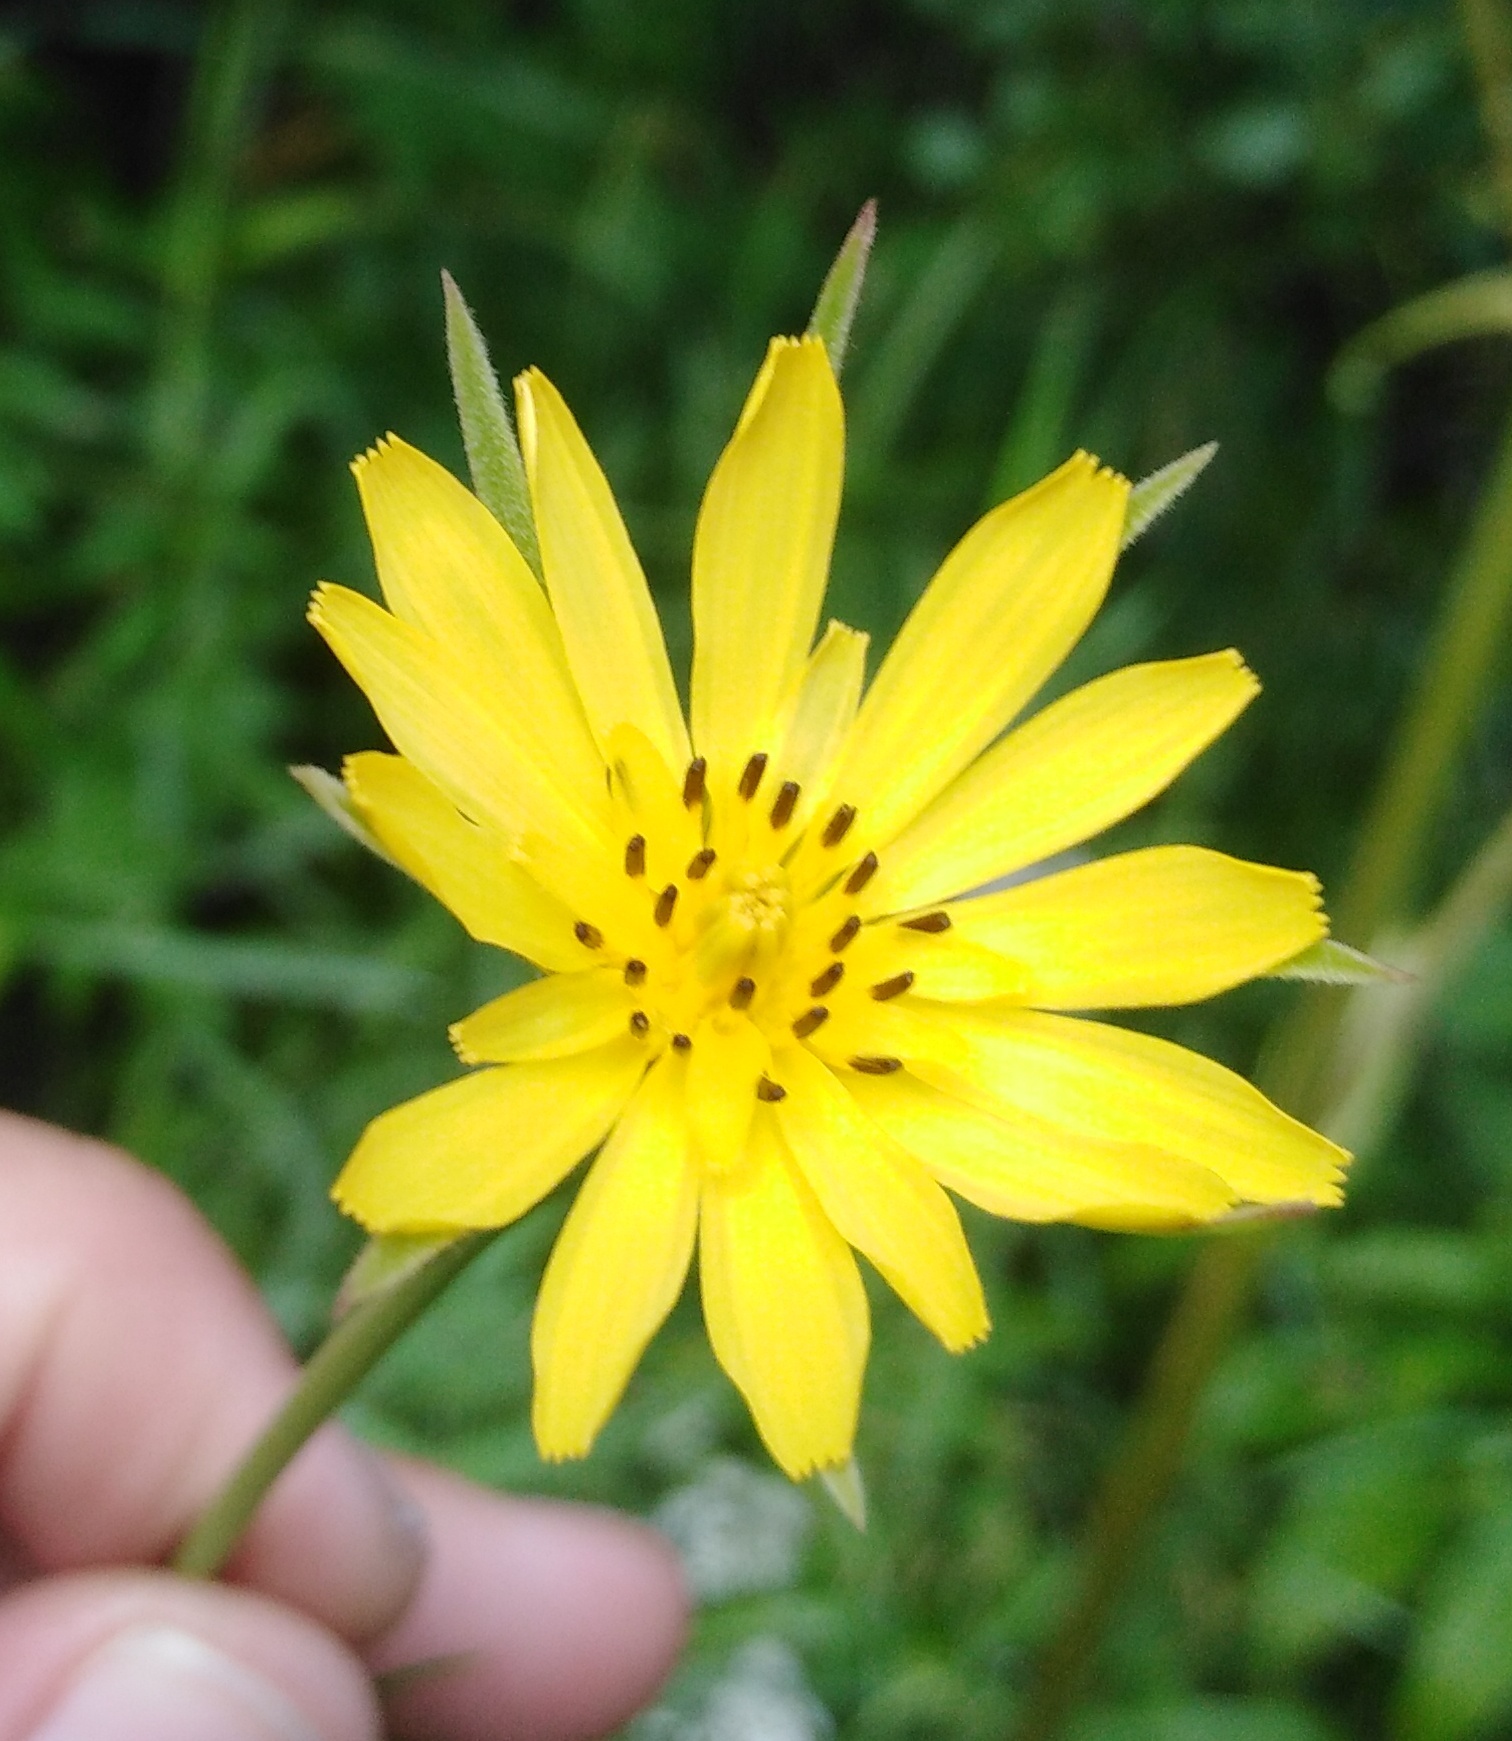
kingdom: Plantae
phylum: Tracheophyta
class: Magnoliopsida
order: Asterales
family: Asteraceae
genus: Tragopogon
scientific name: Tragopogon pratensis
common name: Goat's-beard
